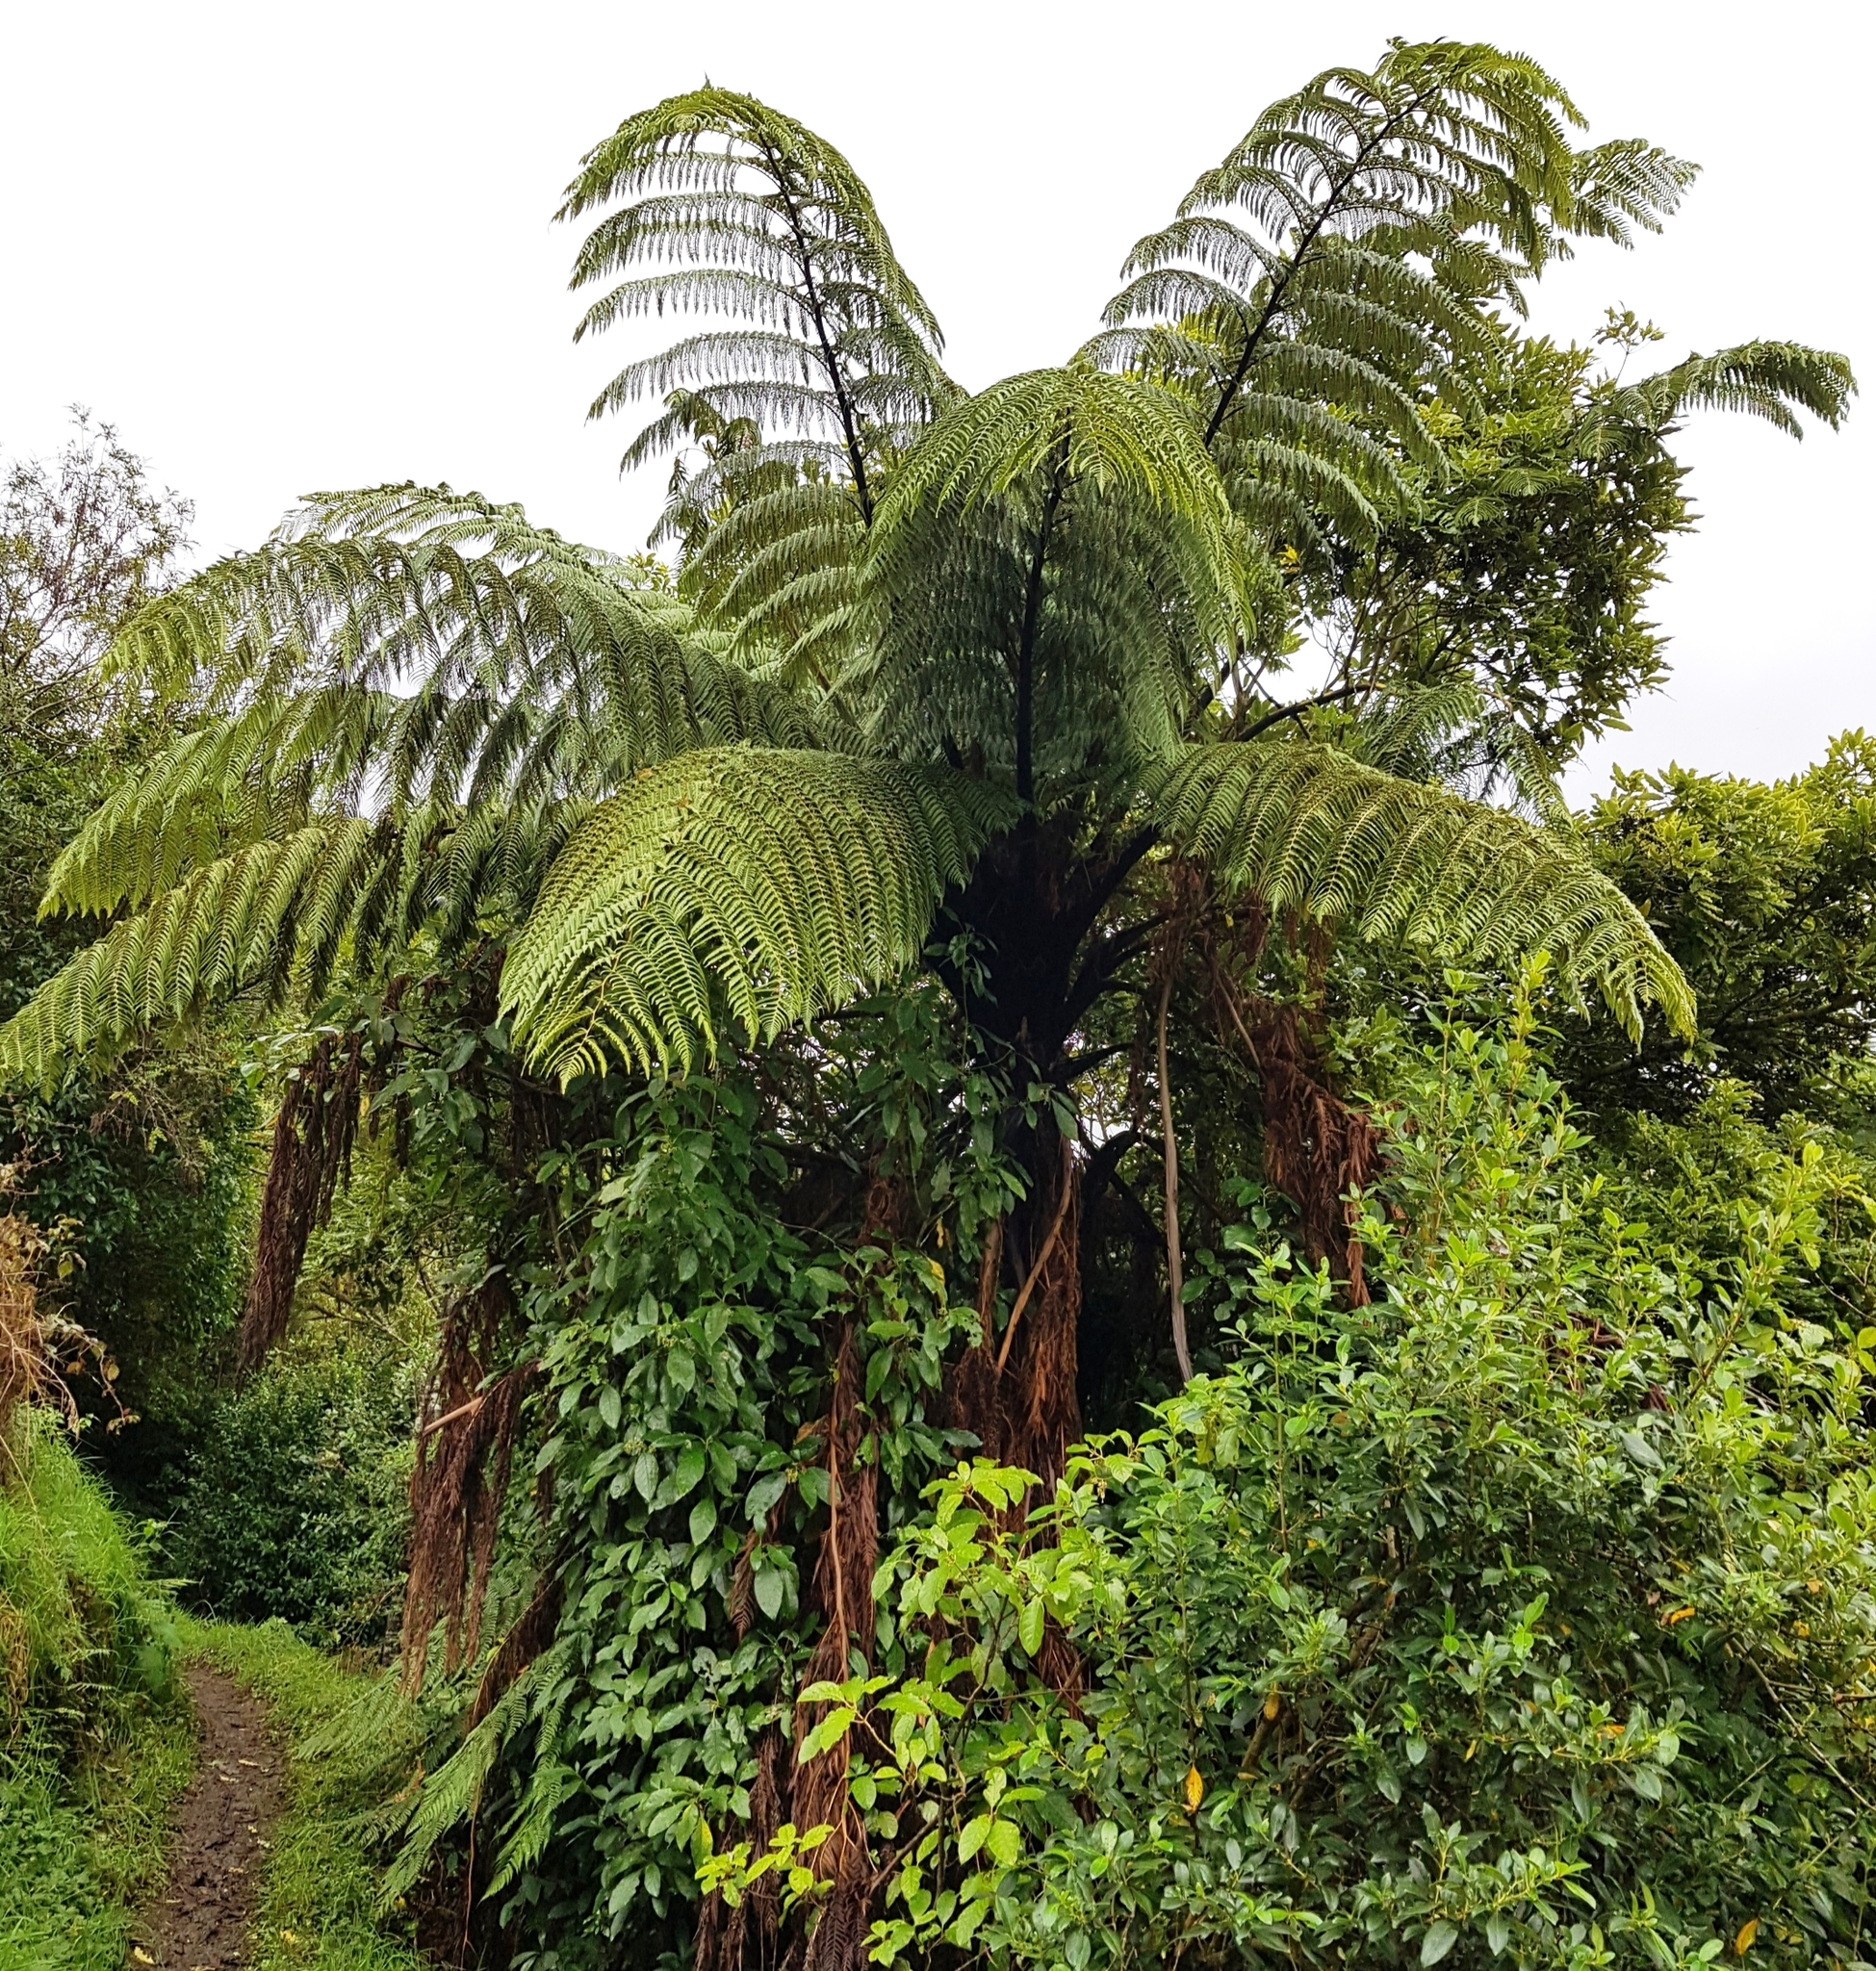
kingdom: Plantae
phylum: Tracheophyta
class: Polypodiopsida
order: Cyatheales
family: Cyatheaceae
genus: Sphaeropteris
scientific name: Sphaeropteris medullaris
